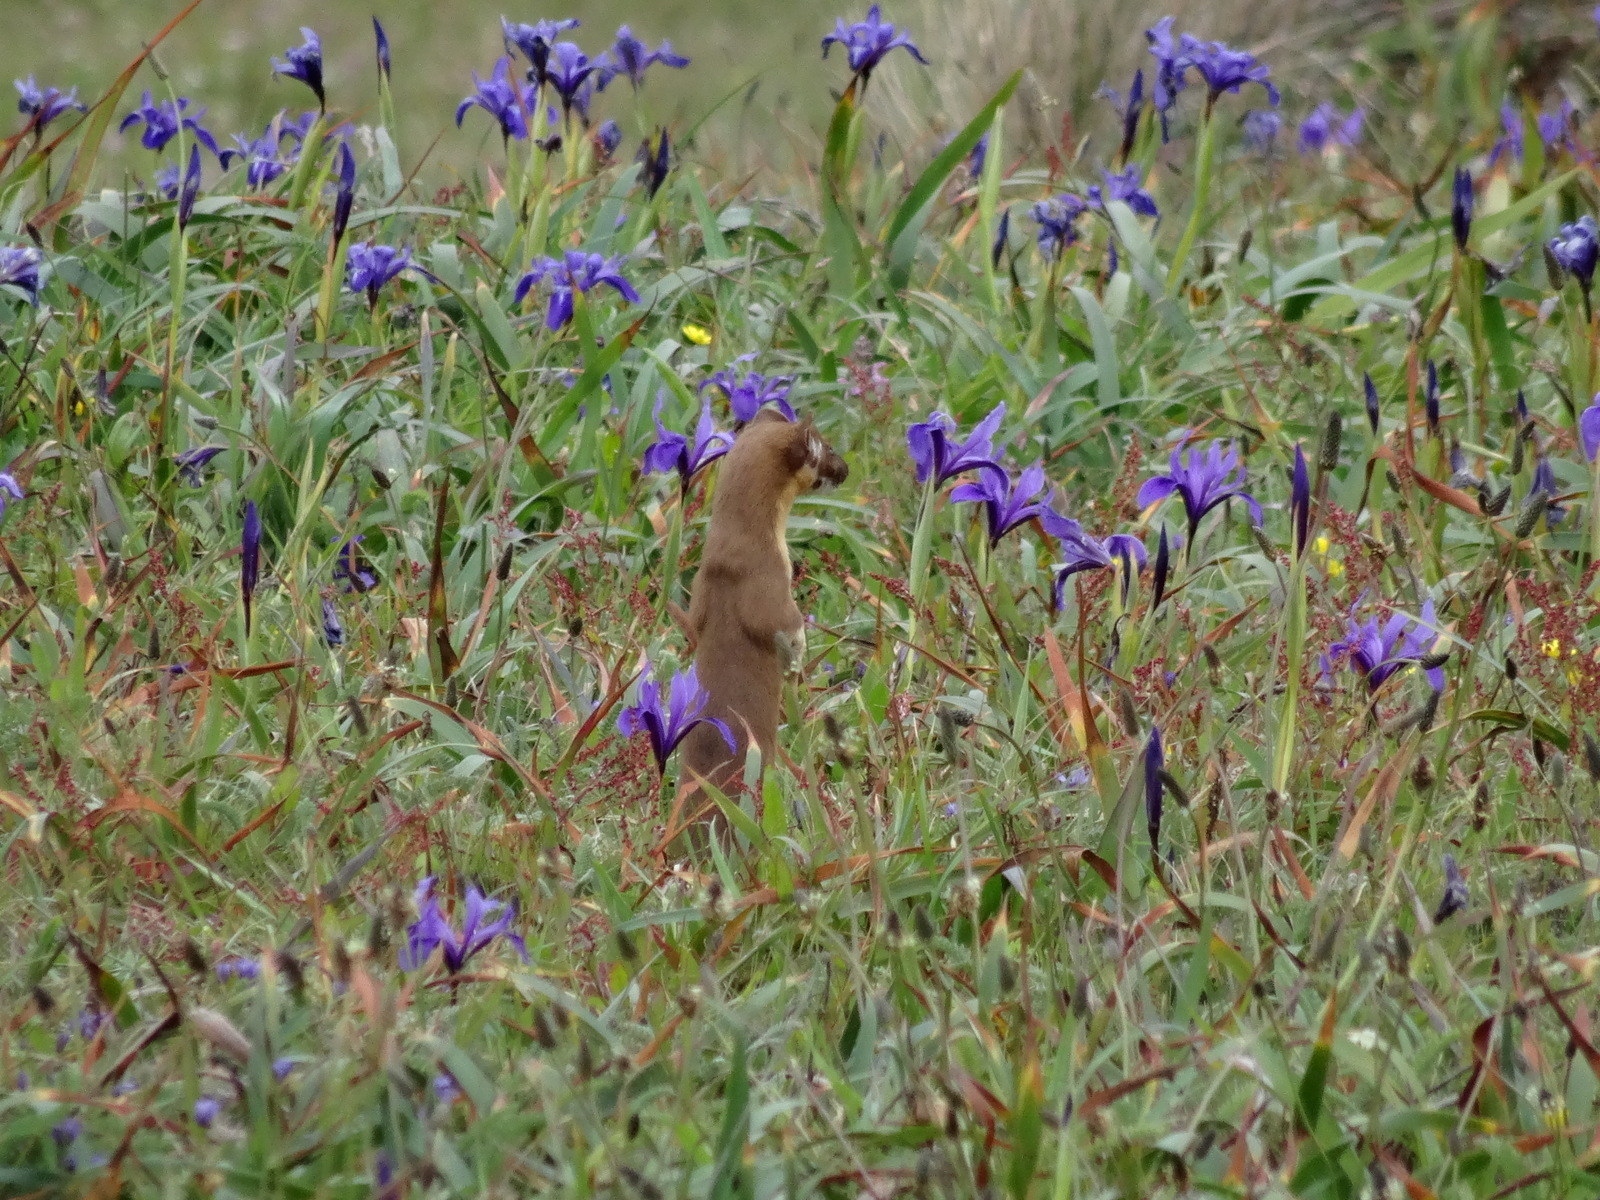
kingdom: Animalia
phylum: Chordata
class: Mammalia
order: Carnivora
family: Mustelidae
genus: Mustela
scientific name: Mustela
